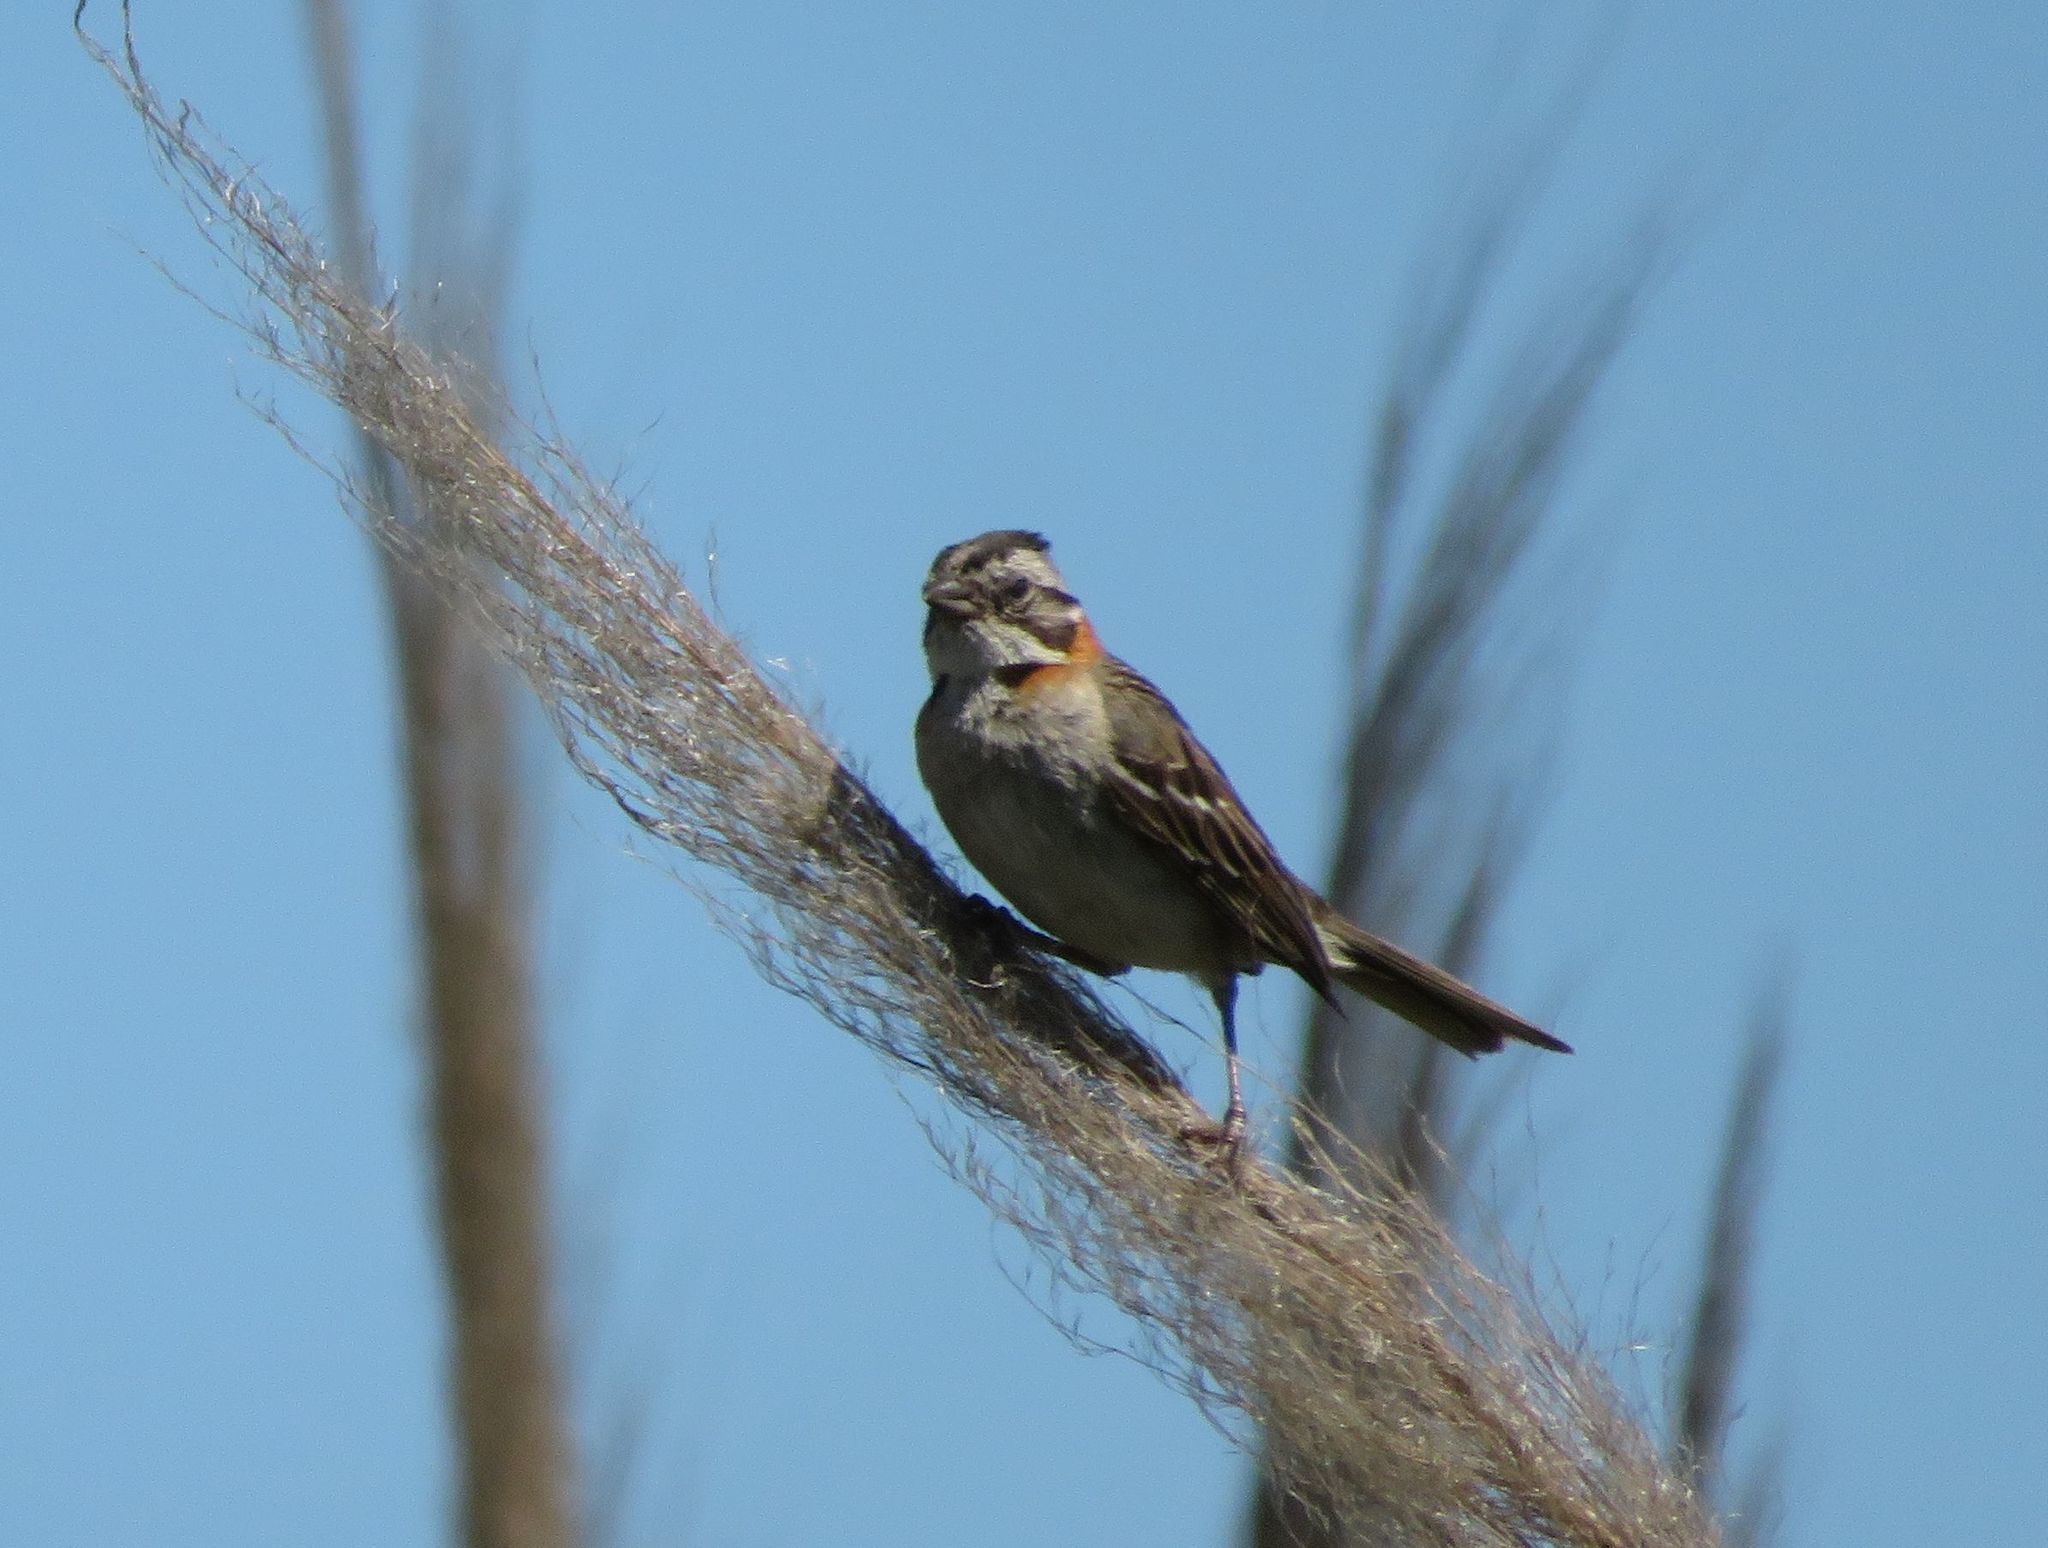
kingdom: Animalia
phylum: Chordata
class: Aves
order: Passeriformes
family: Passerellidae
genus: Zonotrichia
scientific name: Zonotrichia capensis
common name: Rufous-collared sparrow
